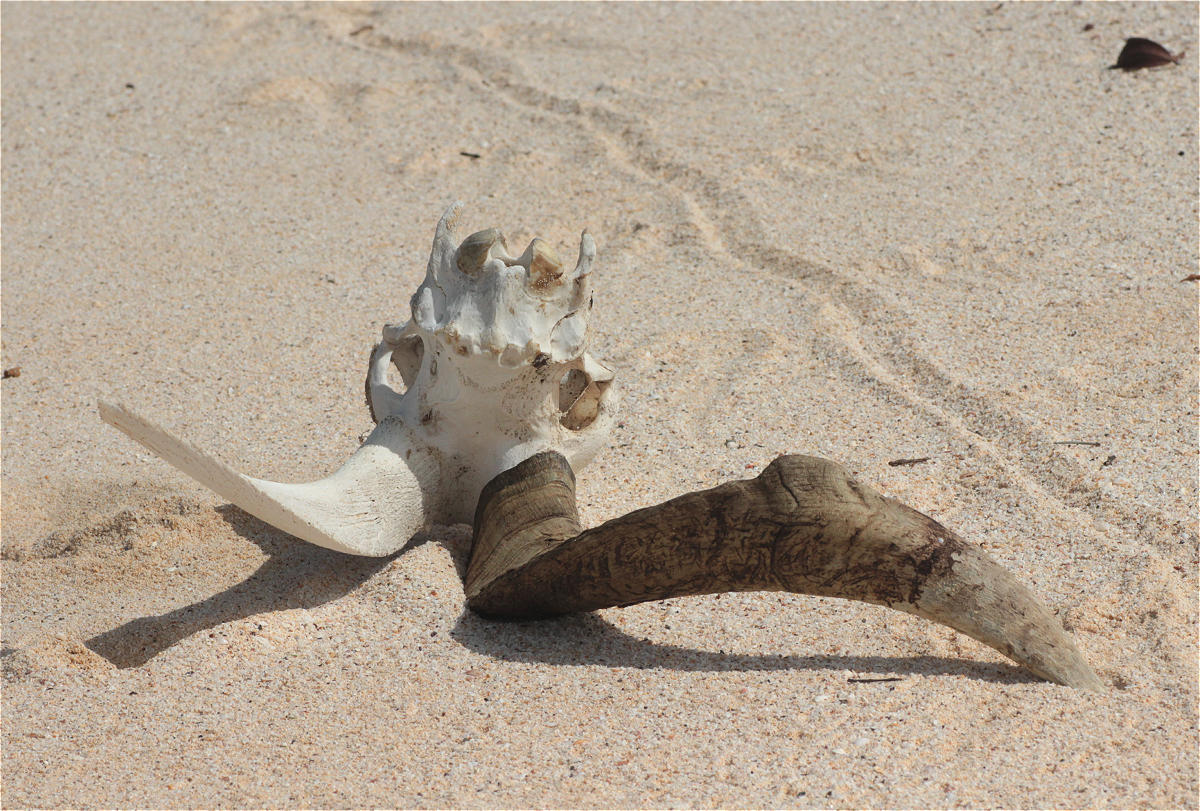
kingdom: Animalia
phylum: Chordata
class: Mammalia
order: Artiodactyla
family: Bovidae
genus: Capra
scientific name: Capra hircus
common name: Domestic goat
